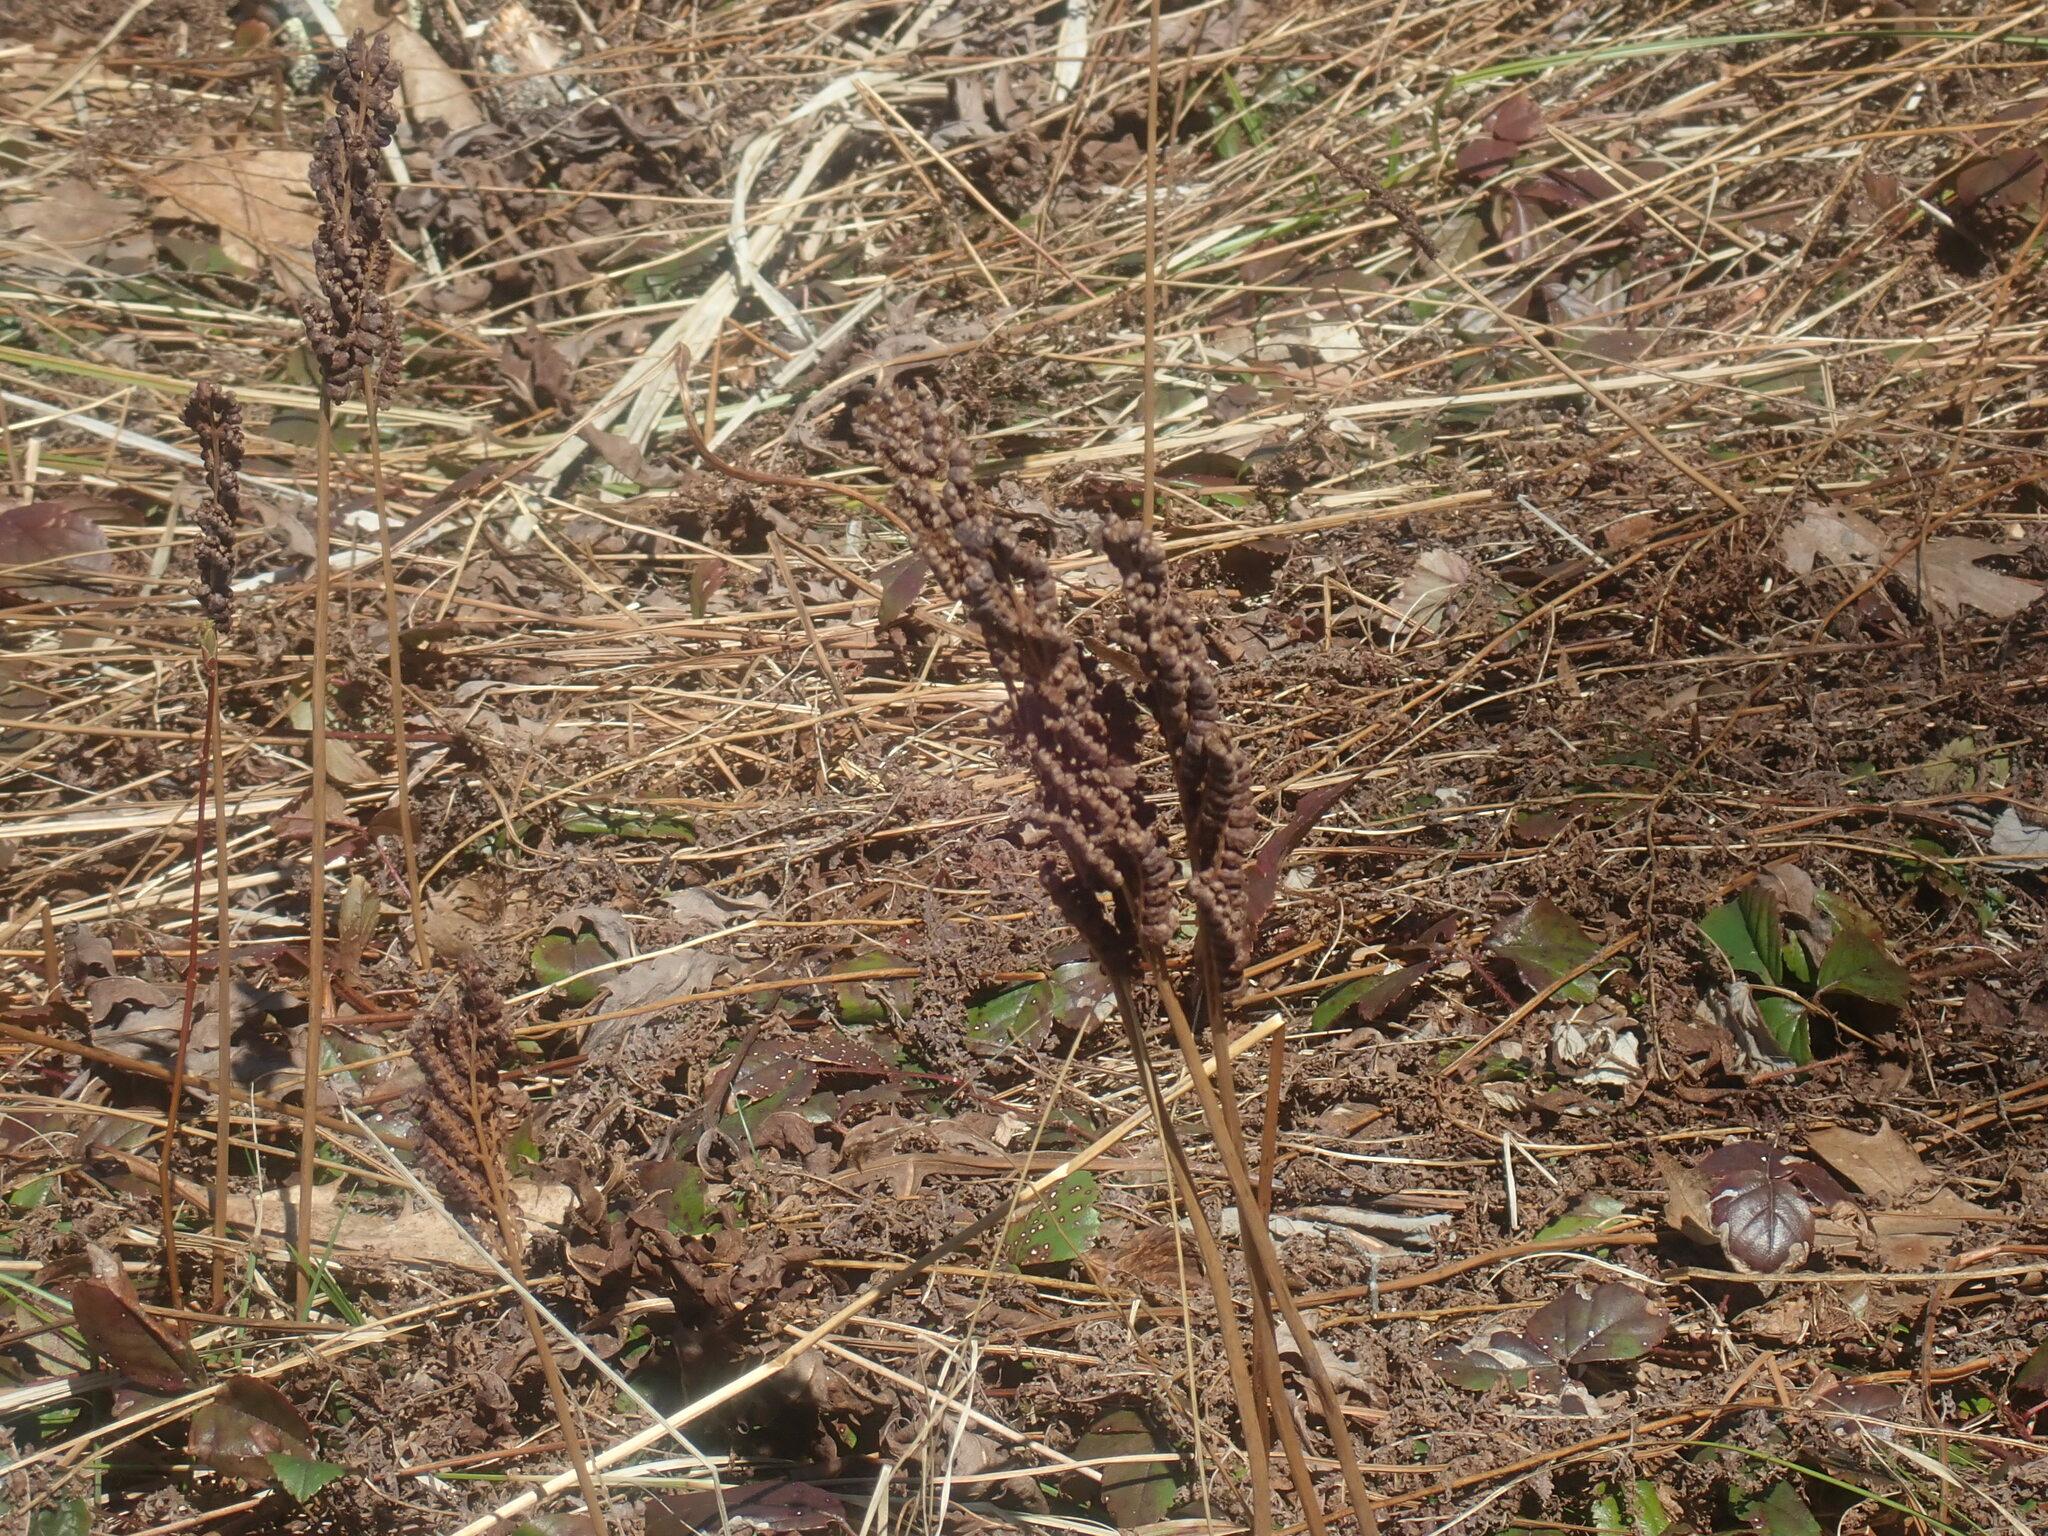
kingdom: Plantae
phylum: Tracheophyta
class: Polypodiopsida
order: Polypodiales
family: Onocleaceae
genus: Onoclea
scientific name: Onoclea sensibilis
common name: Sensitive fern
